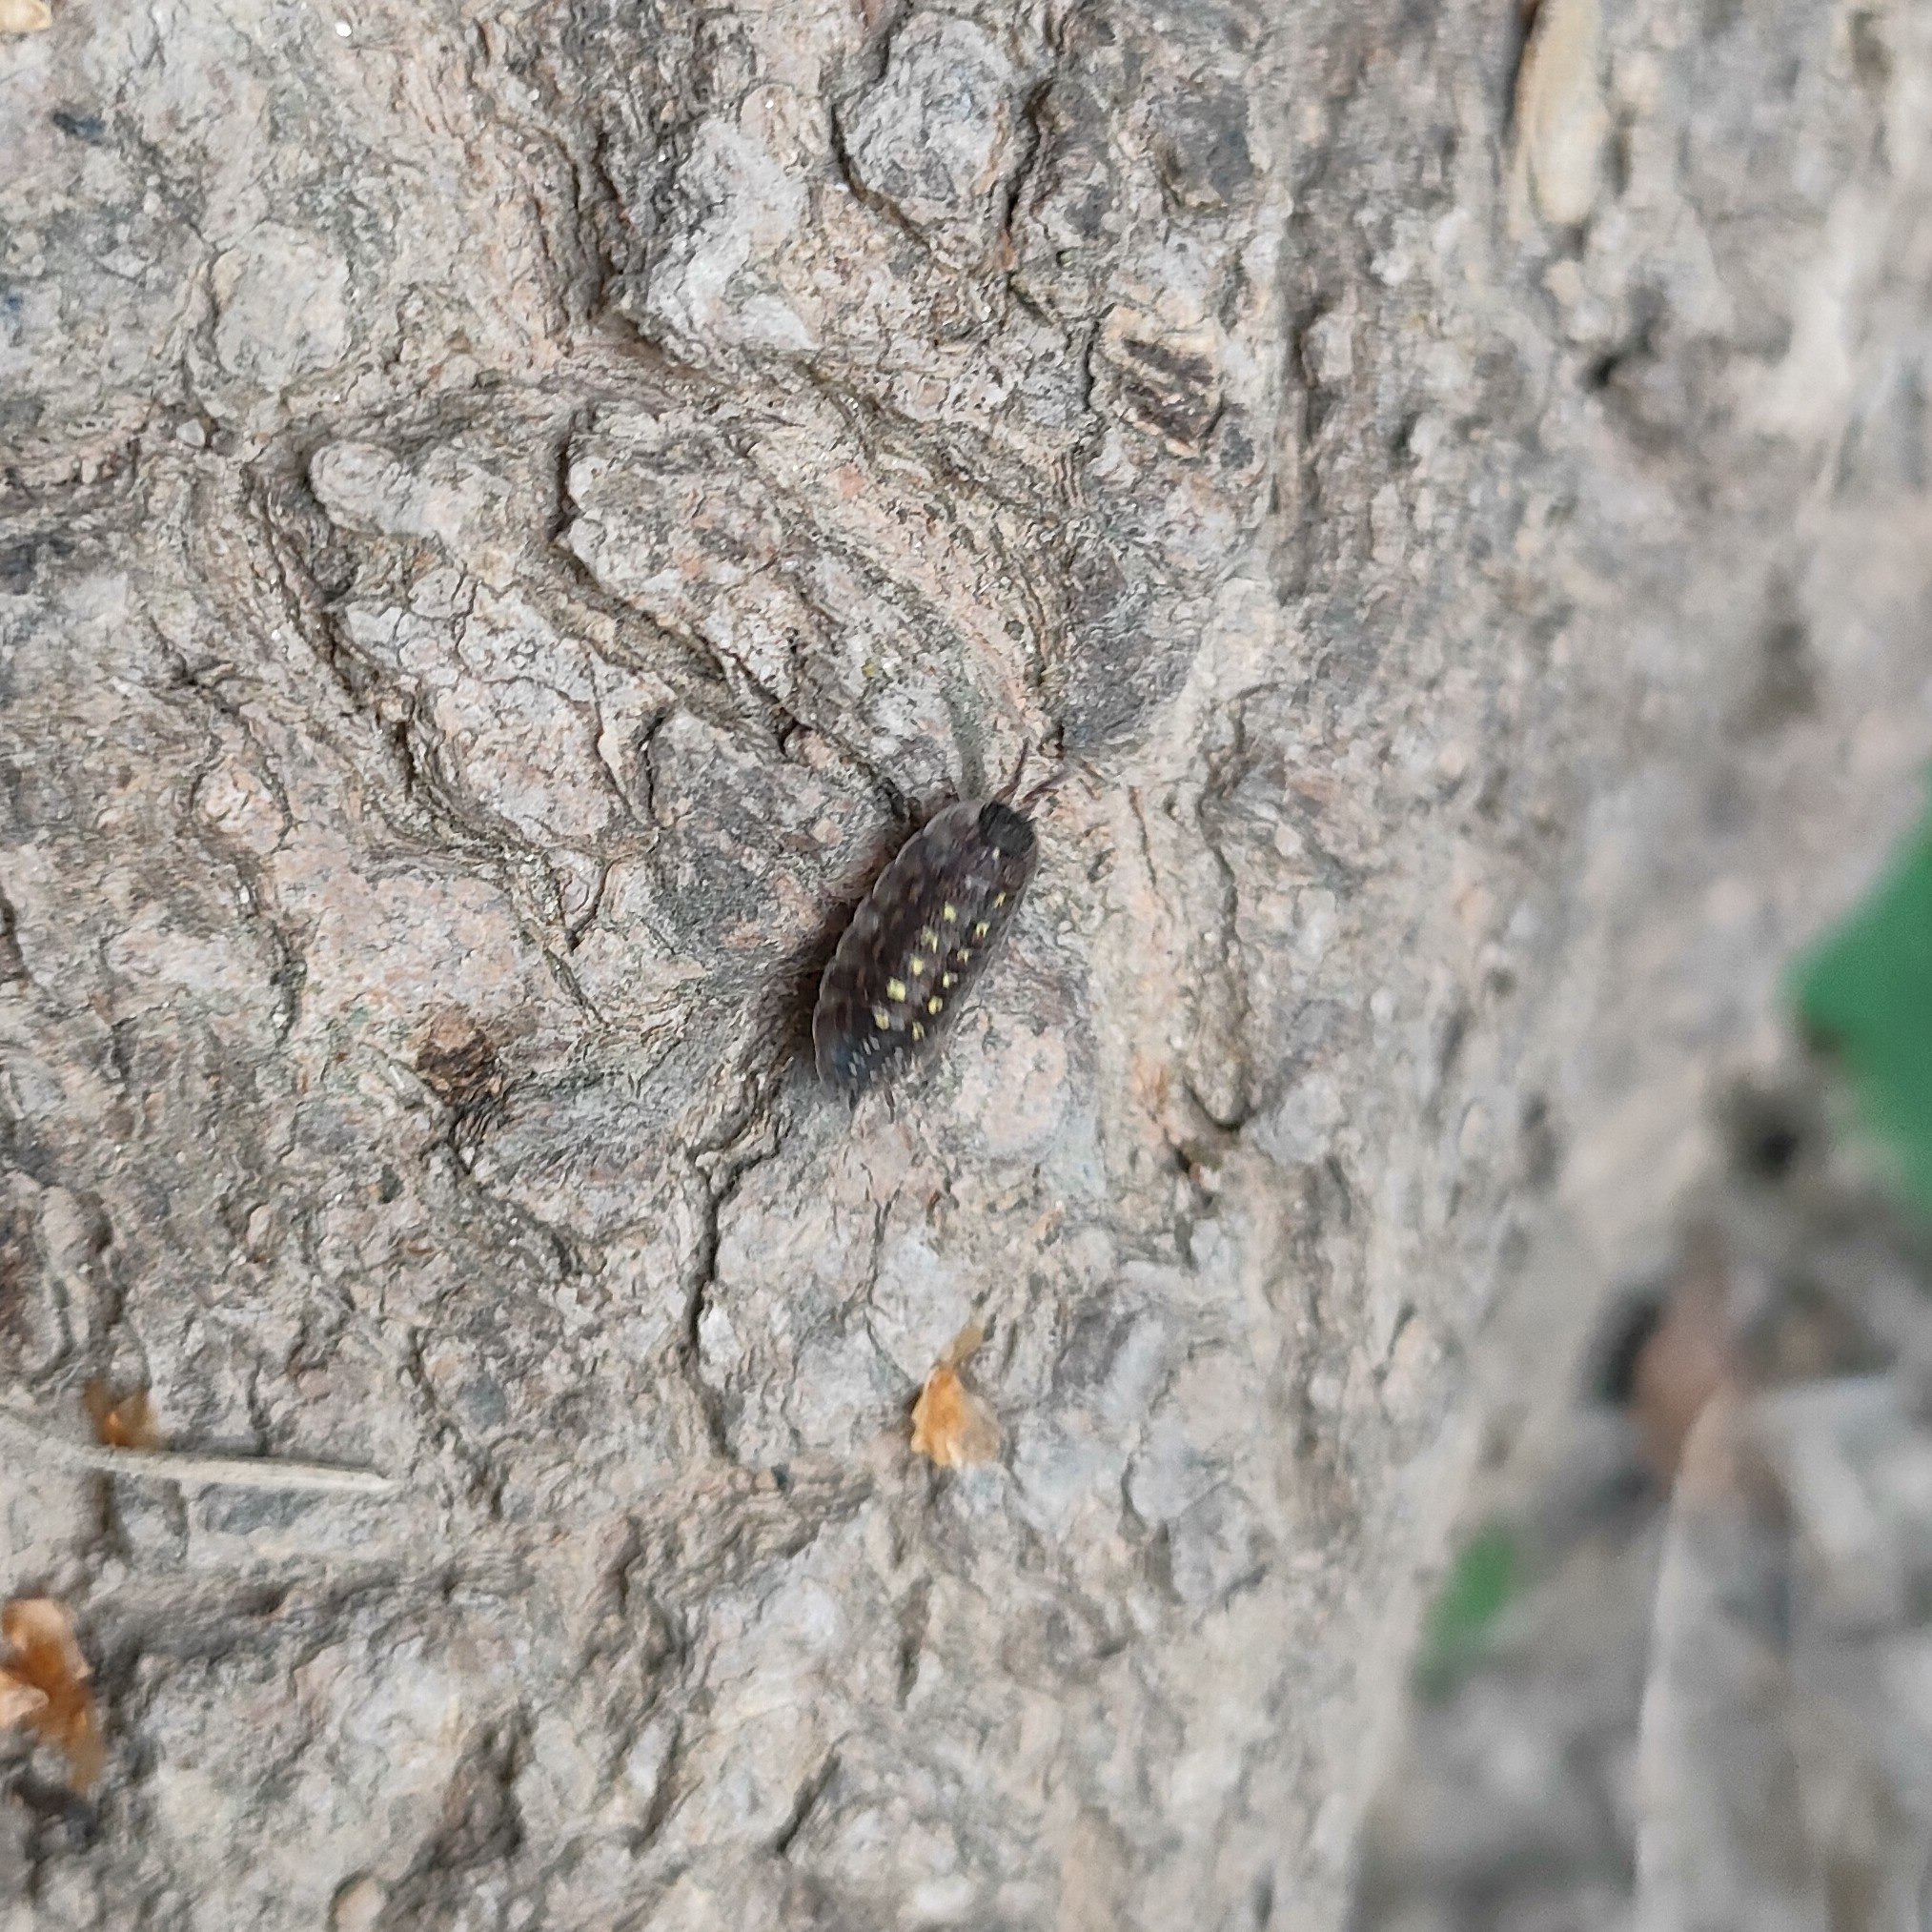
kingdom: Animalia
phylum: Arthropoda
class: Malacostraca
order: Isopoda
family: Porcellionidae
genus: Porcellio
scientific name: Porcellio spinicornis
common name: Painted woodlouse
